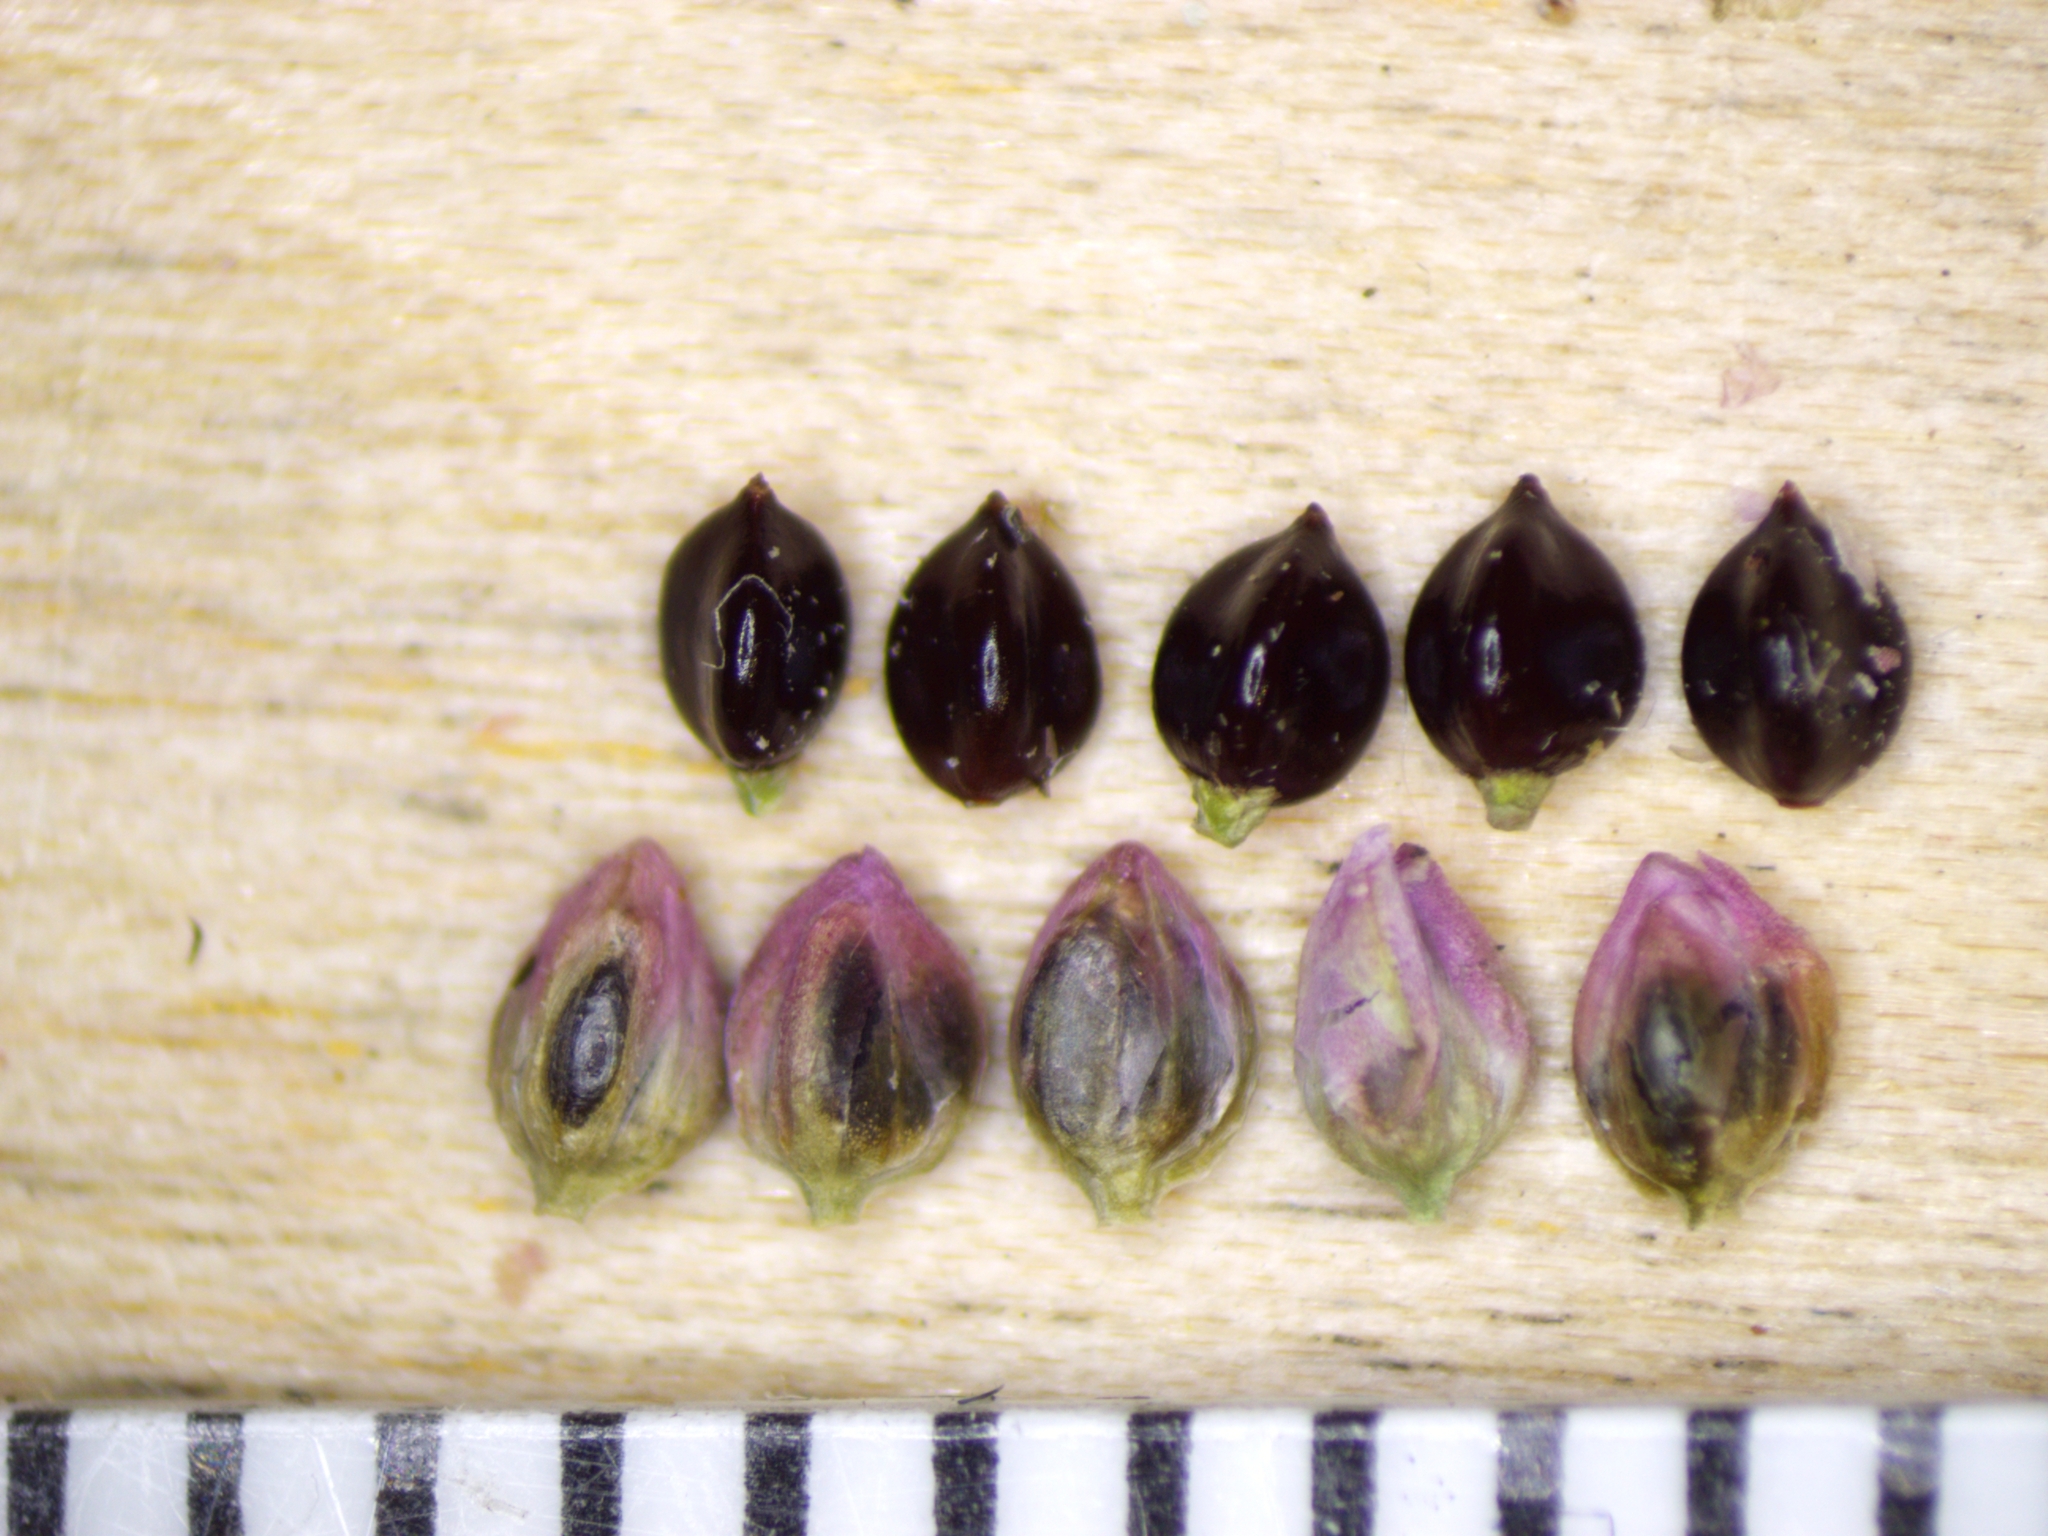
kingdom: Plantae
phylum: Tracheophyta
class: Magnoliopsida
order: Caryophyllales
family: Polygonaceae
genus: Persicaria
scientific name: Persicaria longiseta
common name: Bristly lady's-thumb
